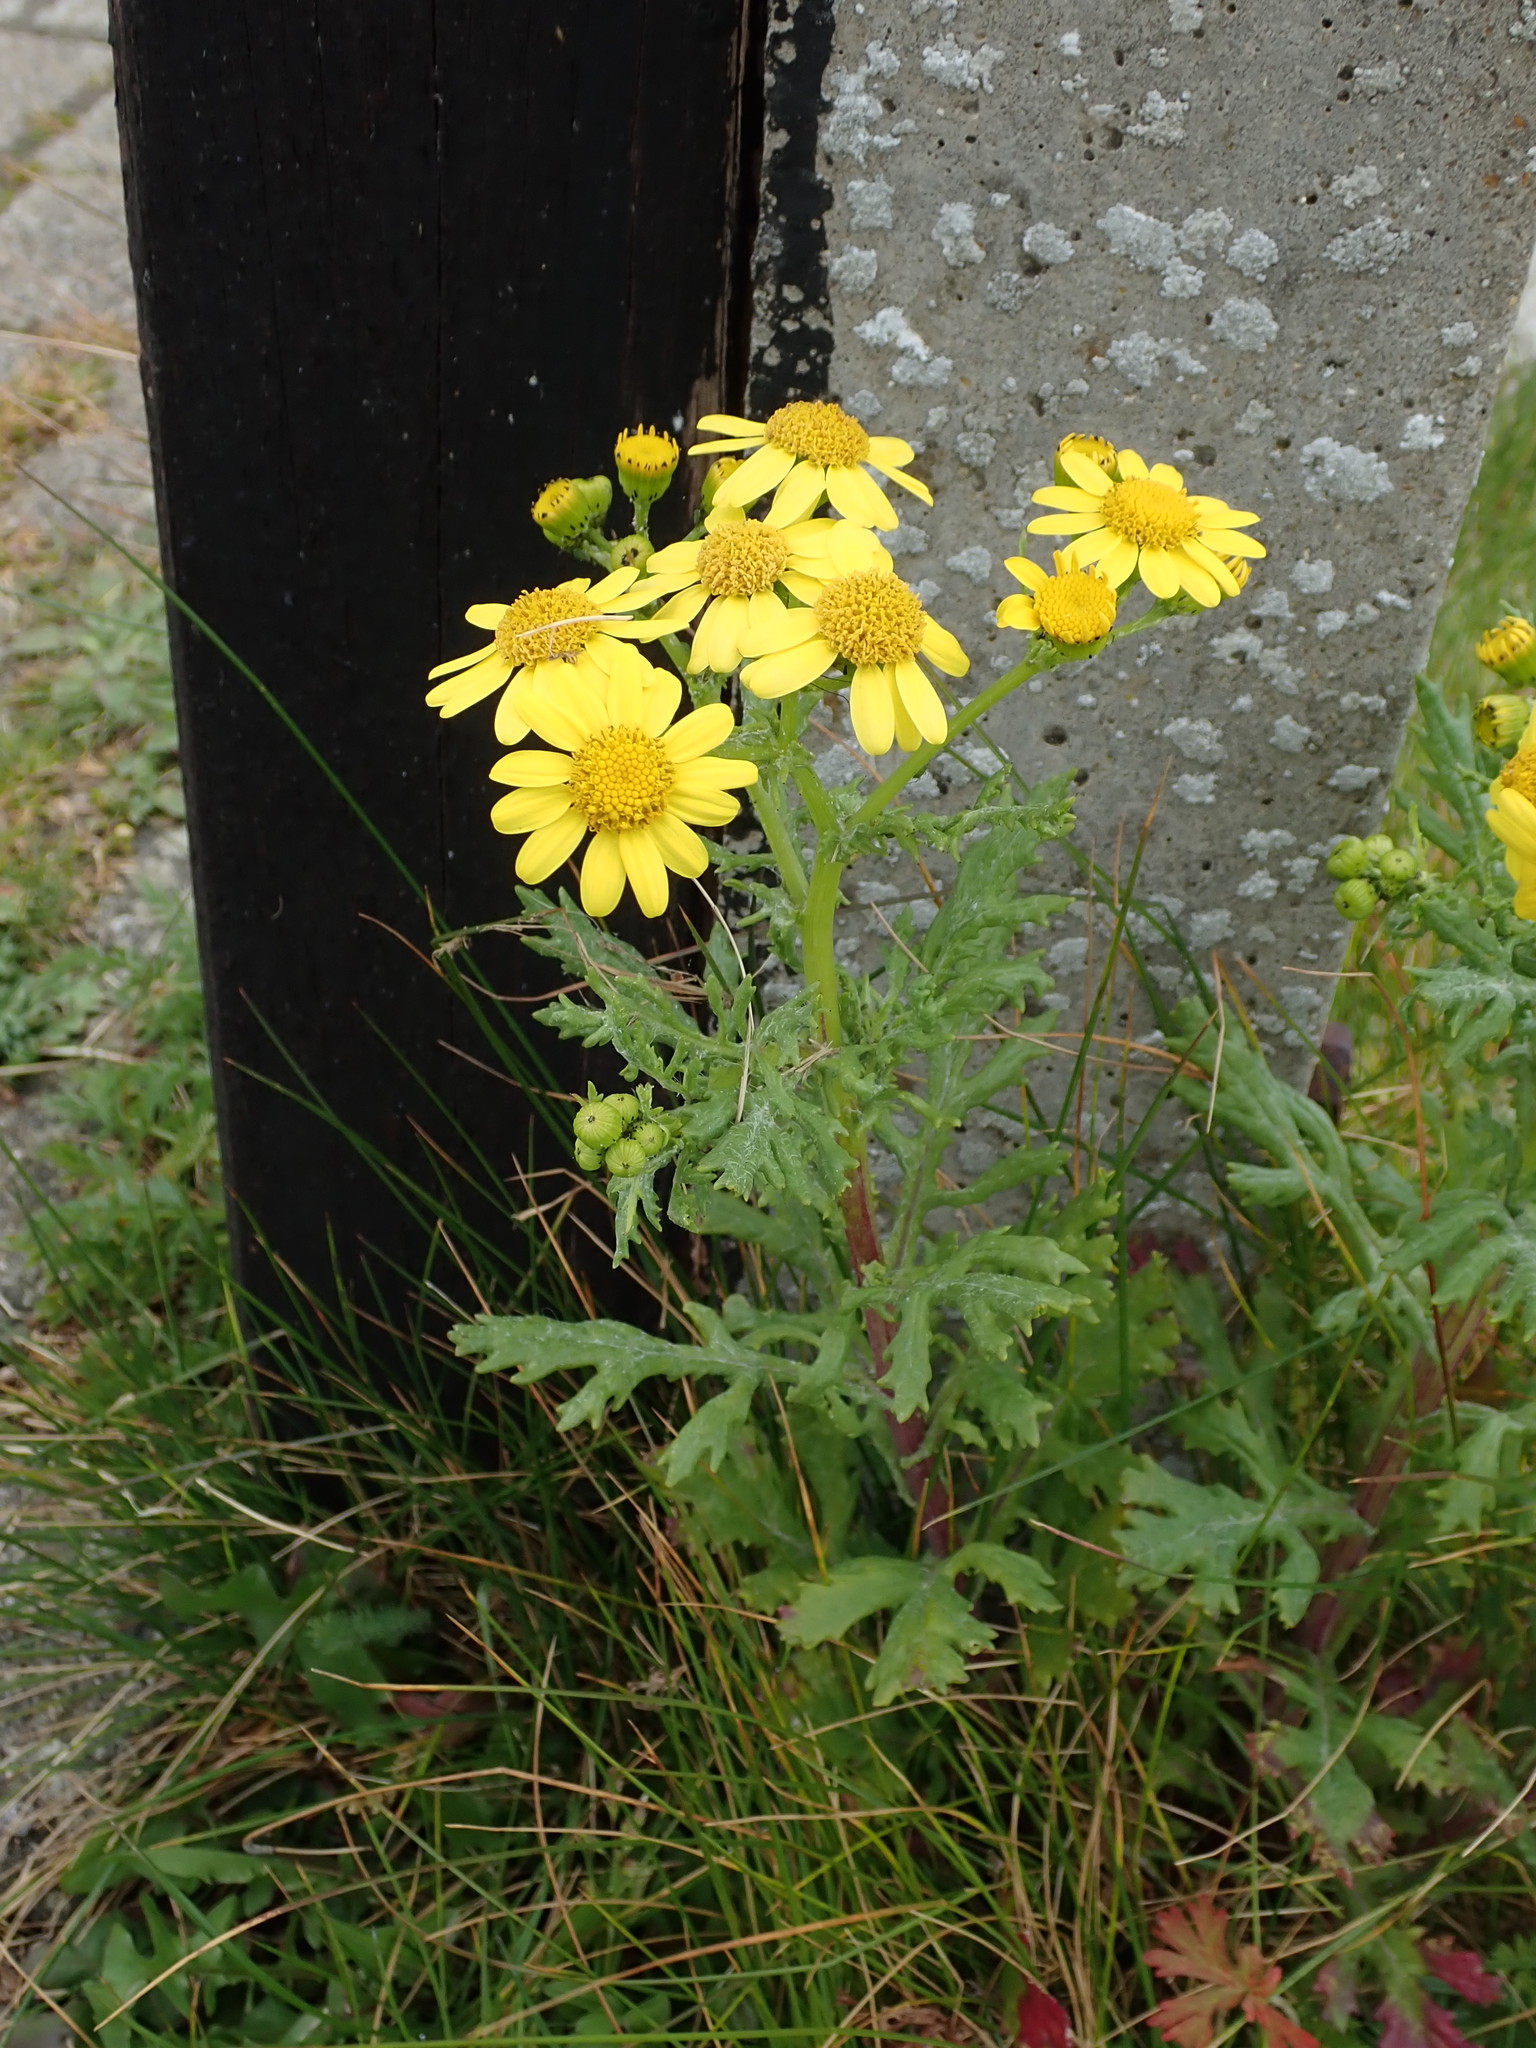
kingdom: Plantae
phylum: Tracheophyta
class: Magnoliopsida
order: Asterales
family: Asteraceae
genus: Senecio
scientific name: Senecio squalidus
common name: Oxford ragwort
